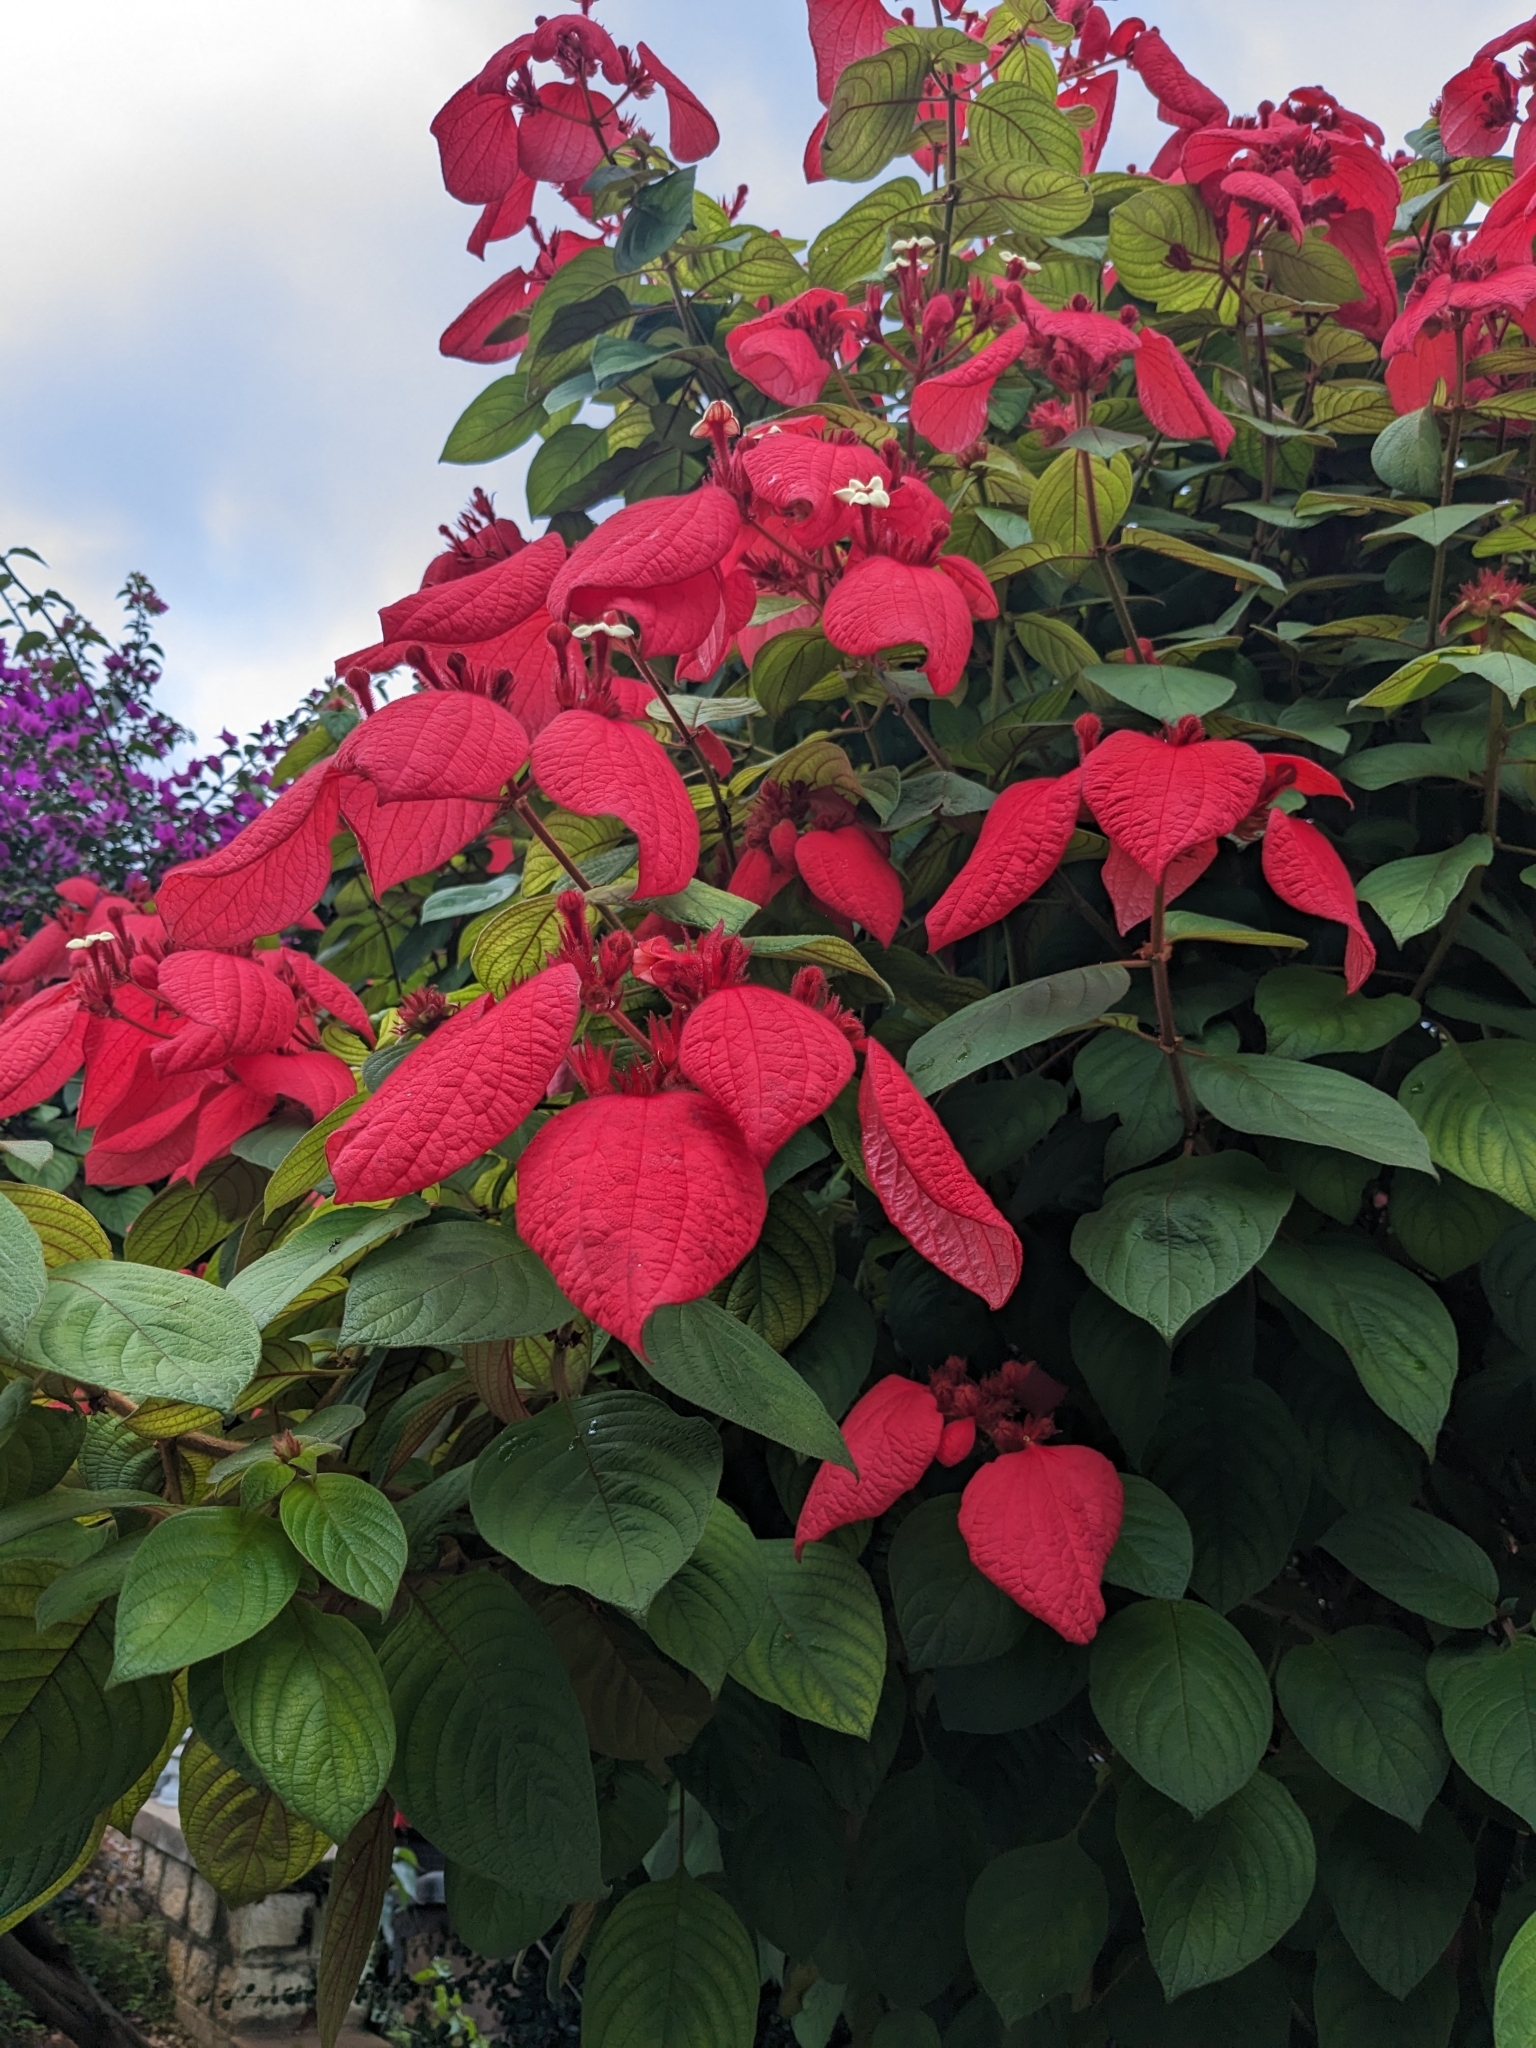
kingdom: Plantae
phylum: Tracheophyta
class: Magnoliopsida
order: Gentianales
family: Rubiaceae
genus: Mussaenda
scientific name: Mussaenda erythrophylla
